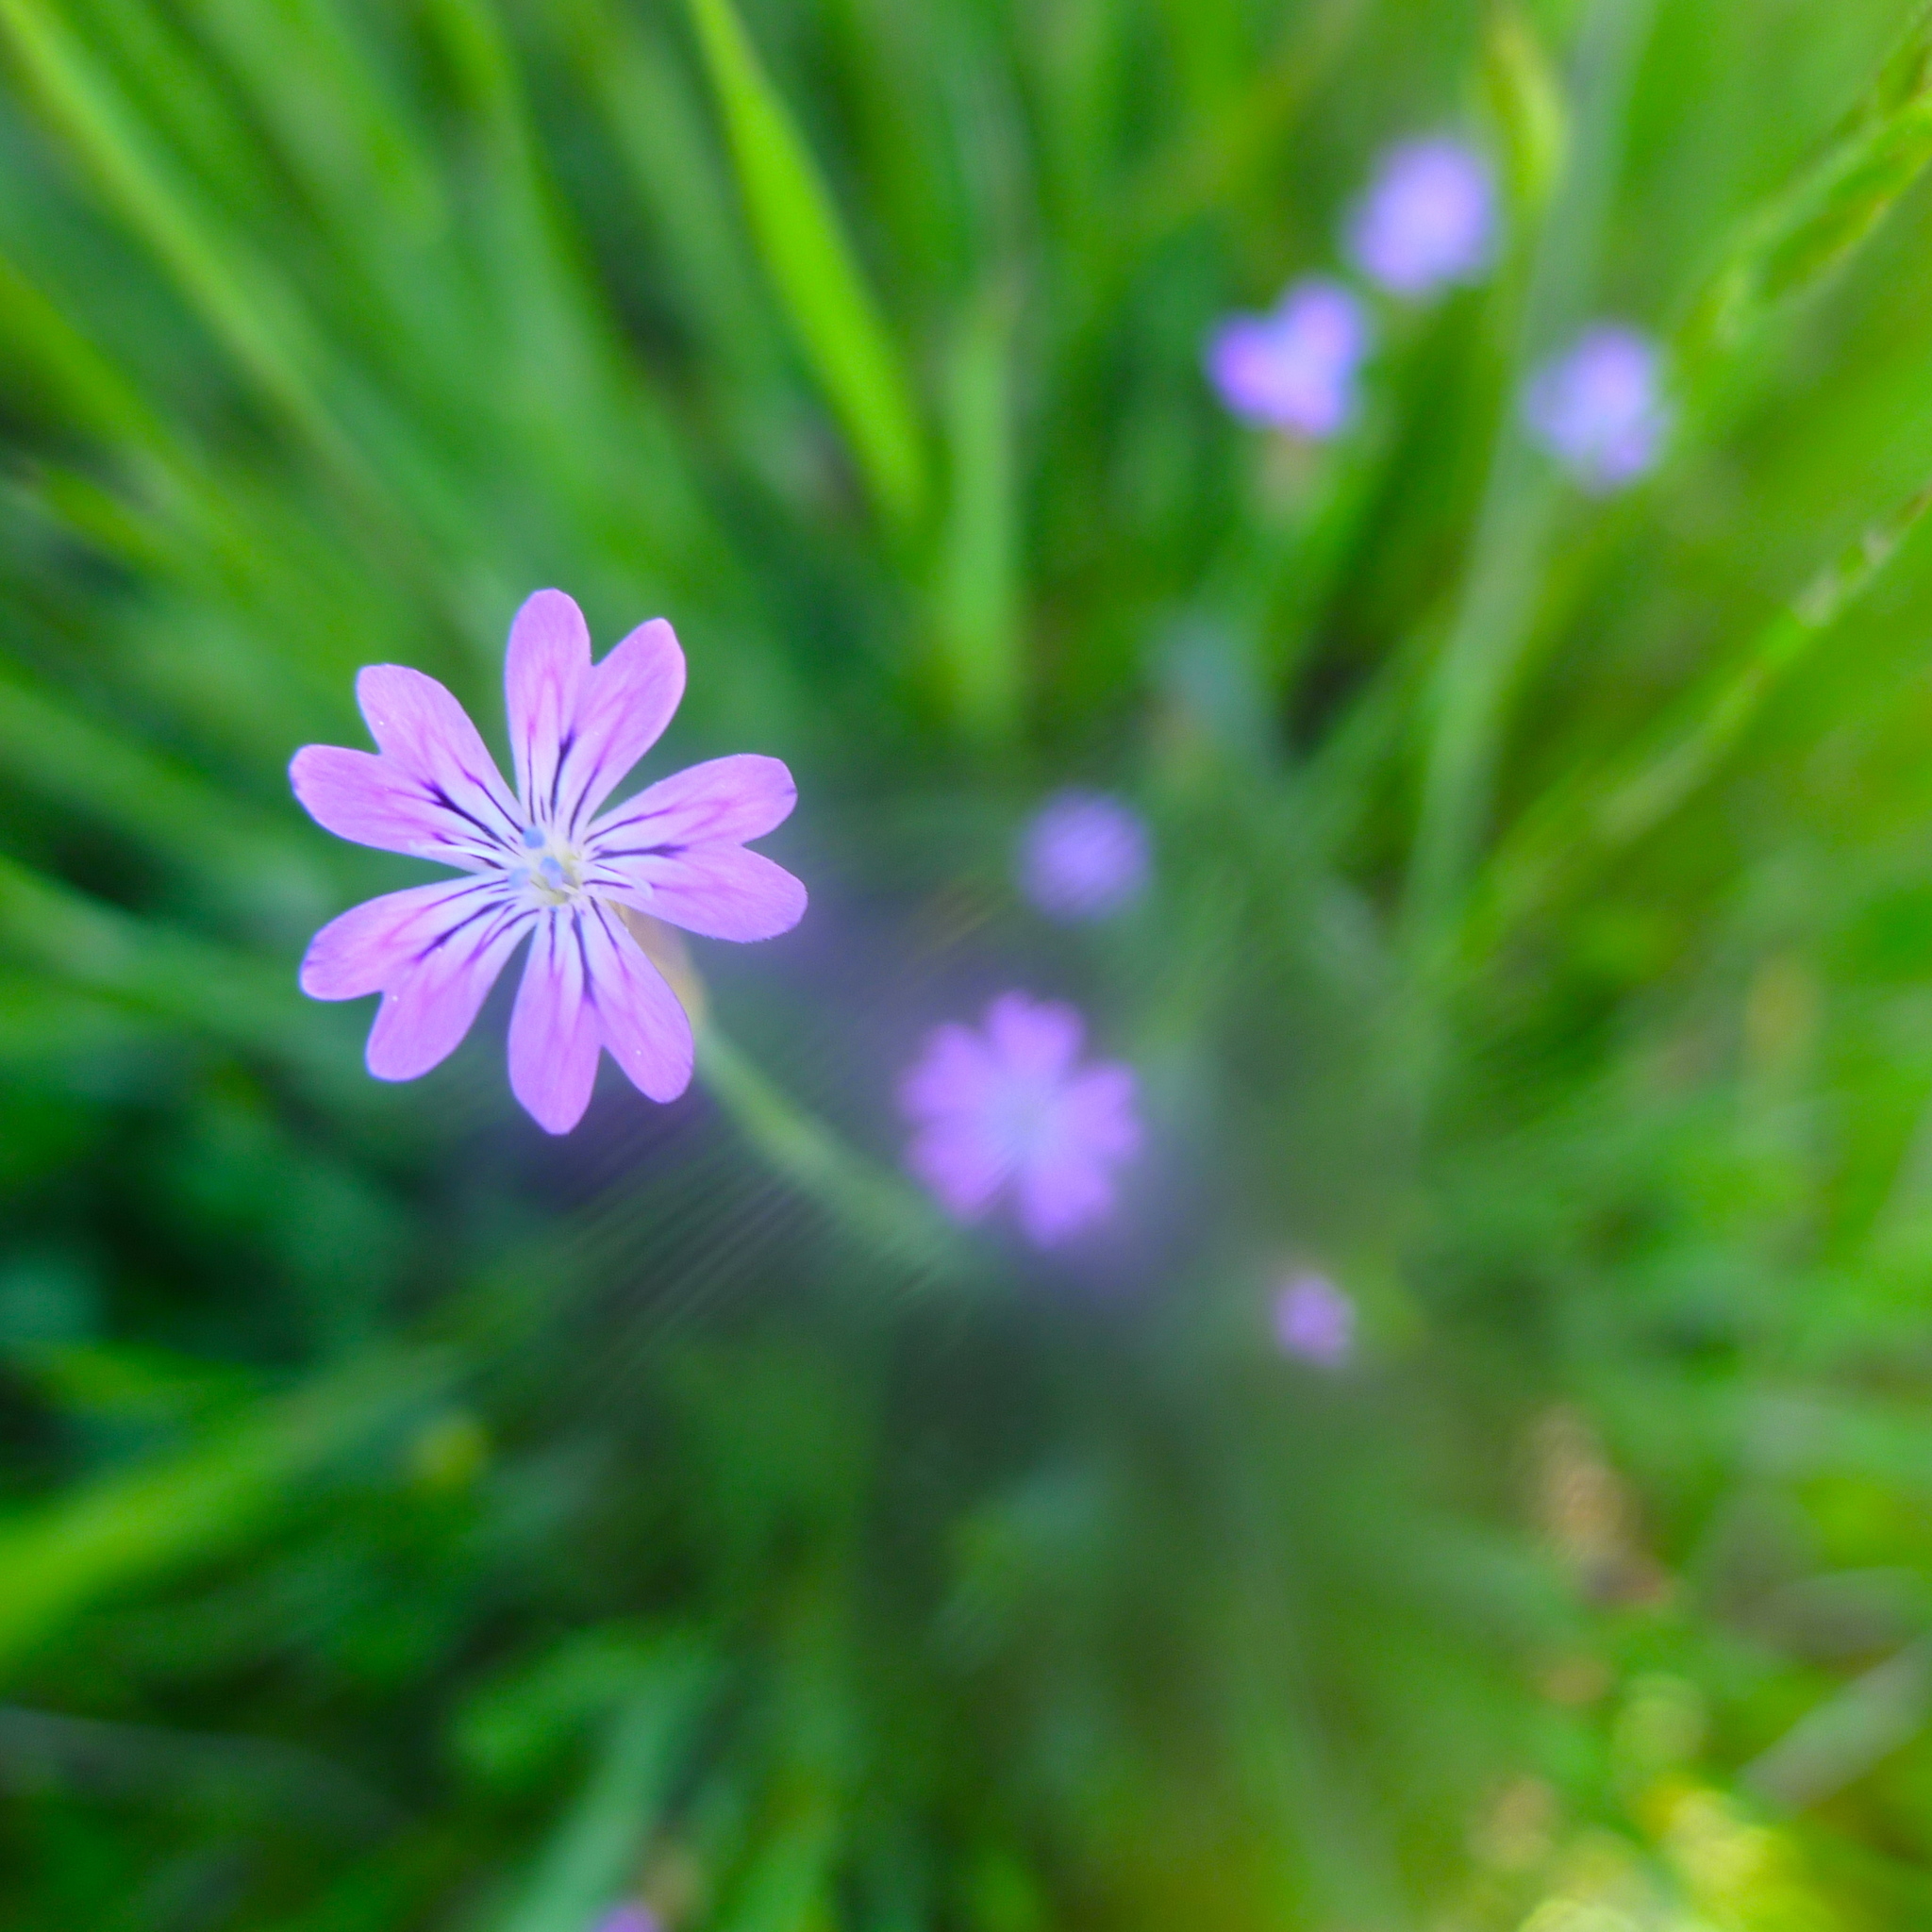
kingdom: Plantae
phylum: Tracheophyta
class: Magnoliopsida
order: Caryophyllales
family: Caryophyllaceae
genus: Petrorhagia
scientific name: Petrorhagia dubia
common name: Hairypink
